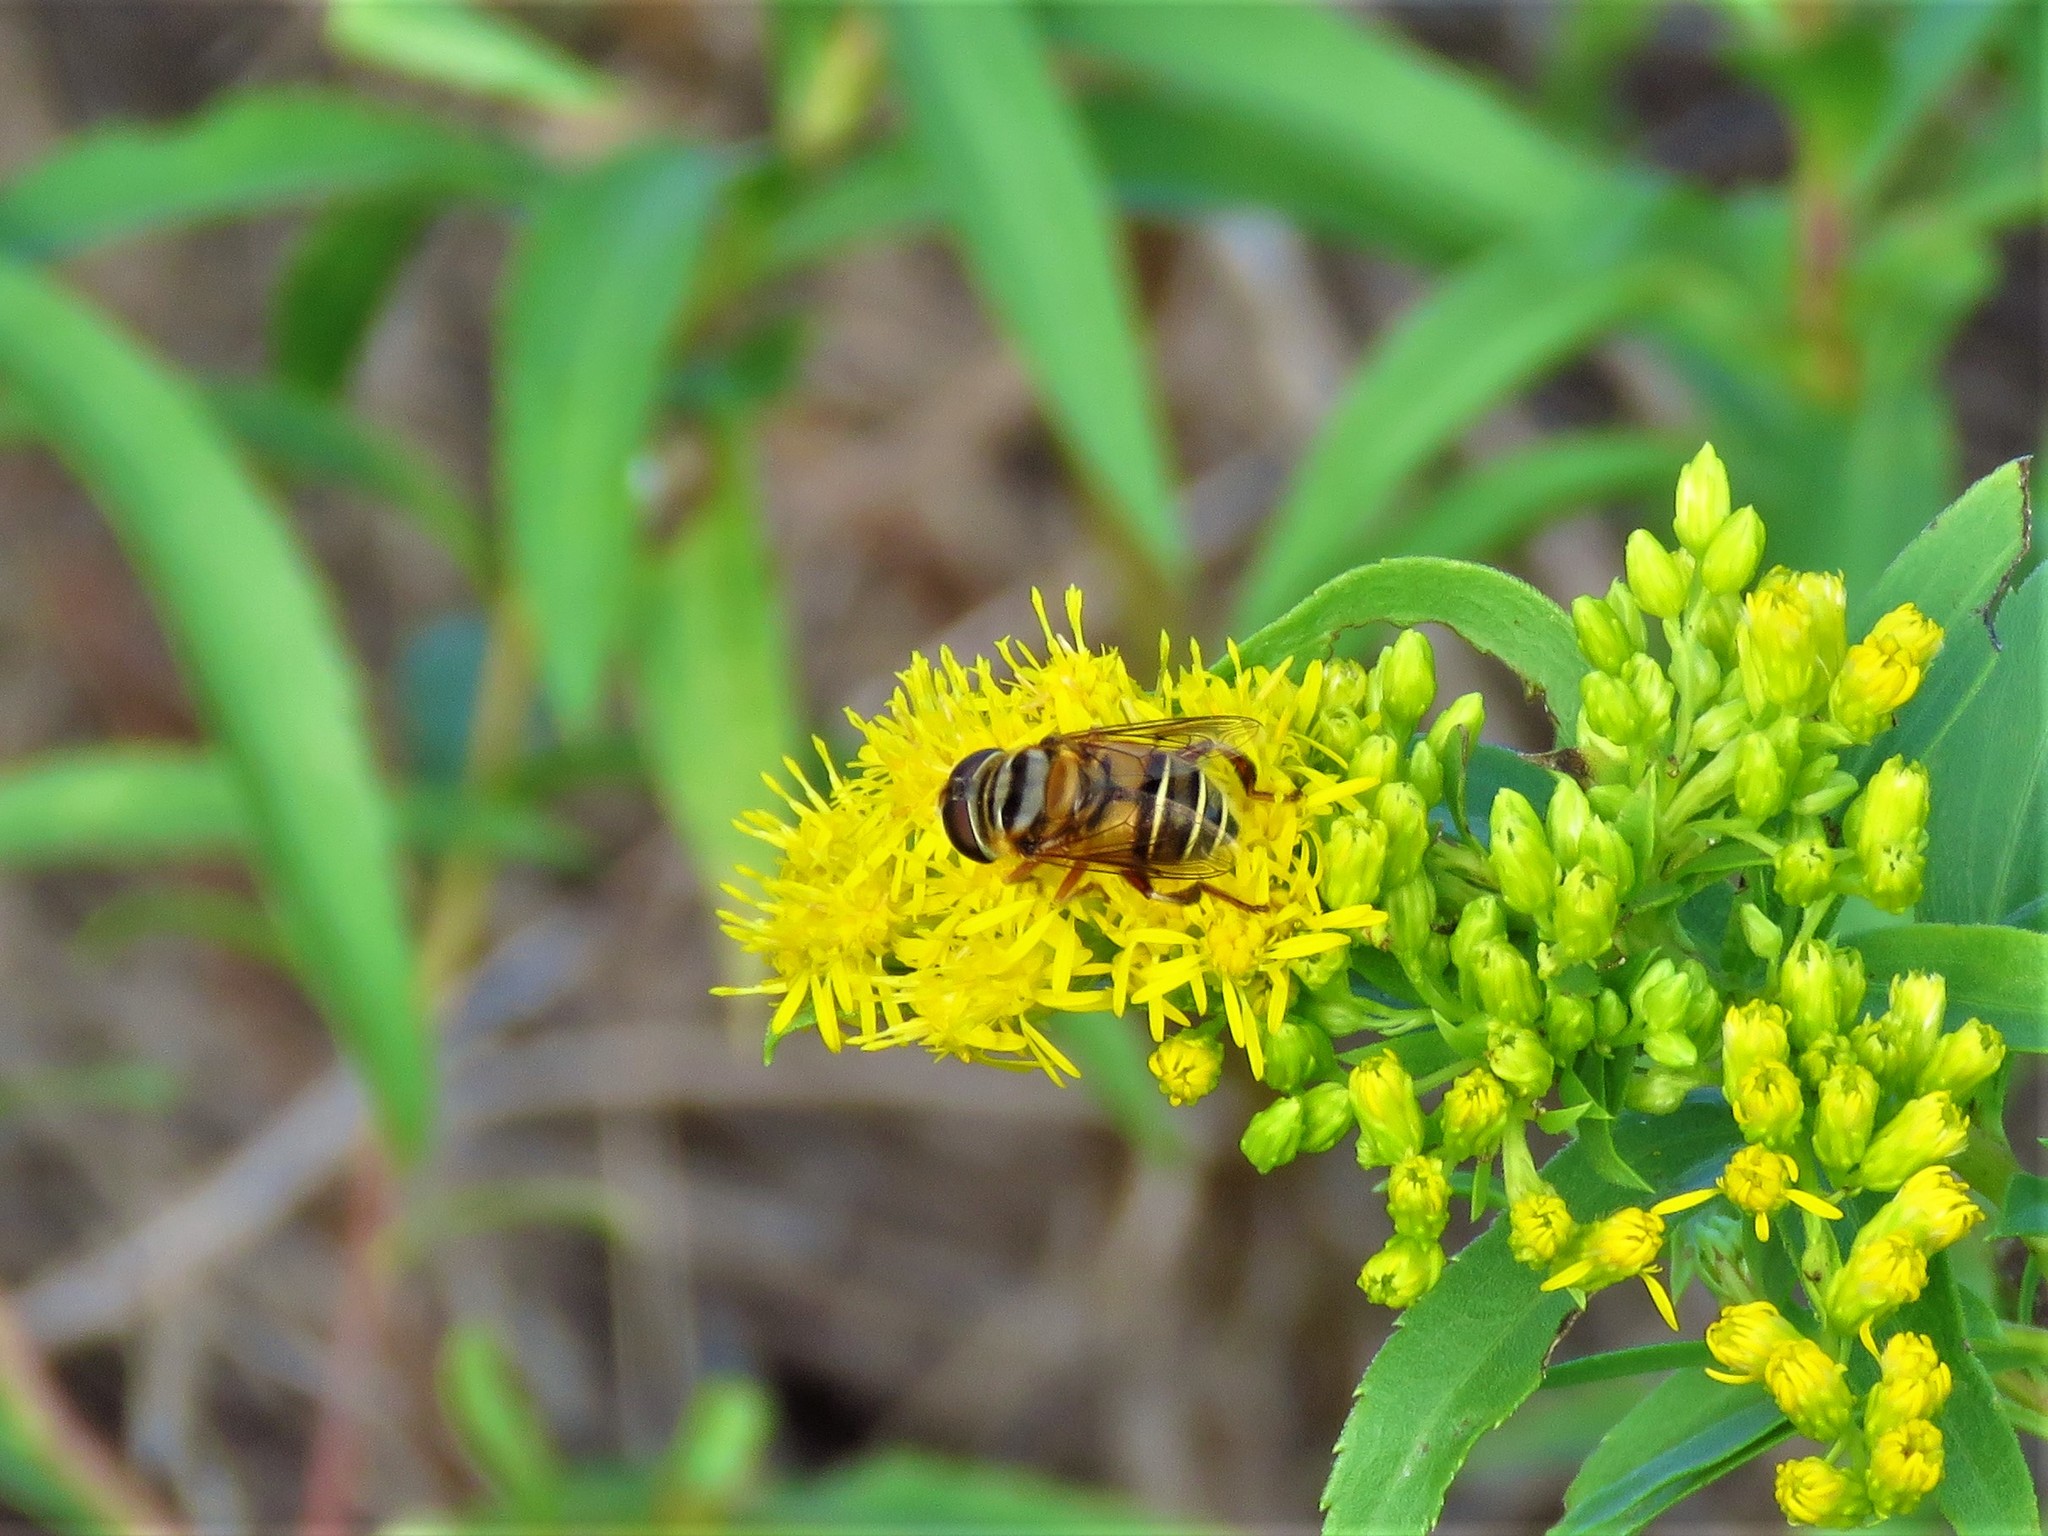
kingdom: Animalia
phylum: Arthropoda
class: Insecta
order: Diptera
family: Syrphidae
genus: Palpada
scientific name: Palpada vinetorum
